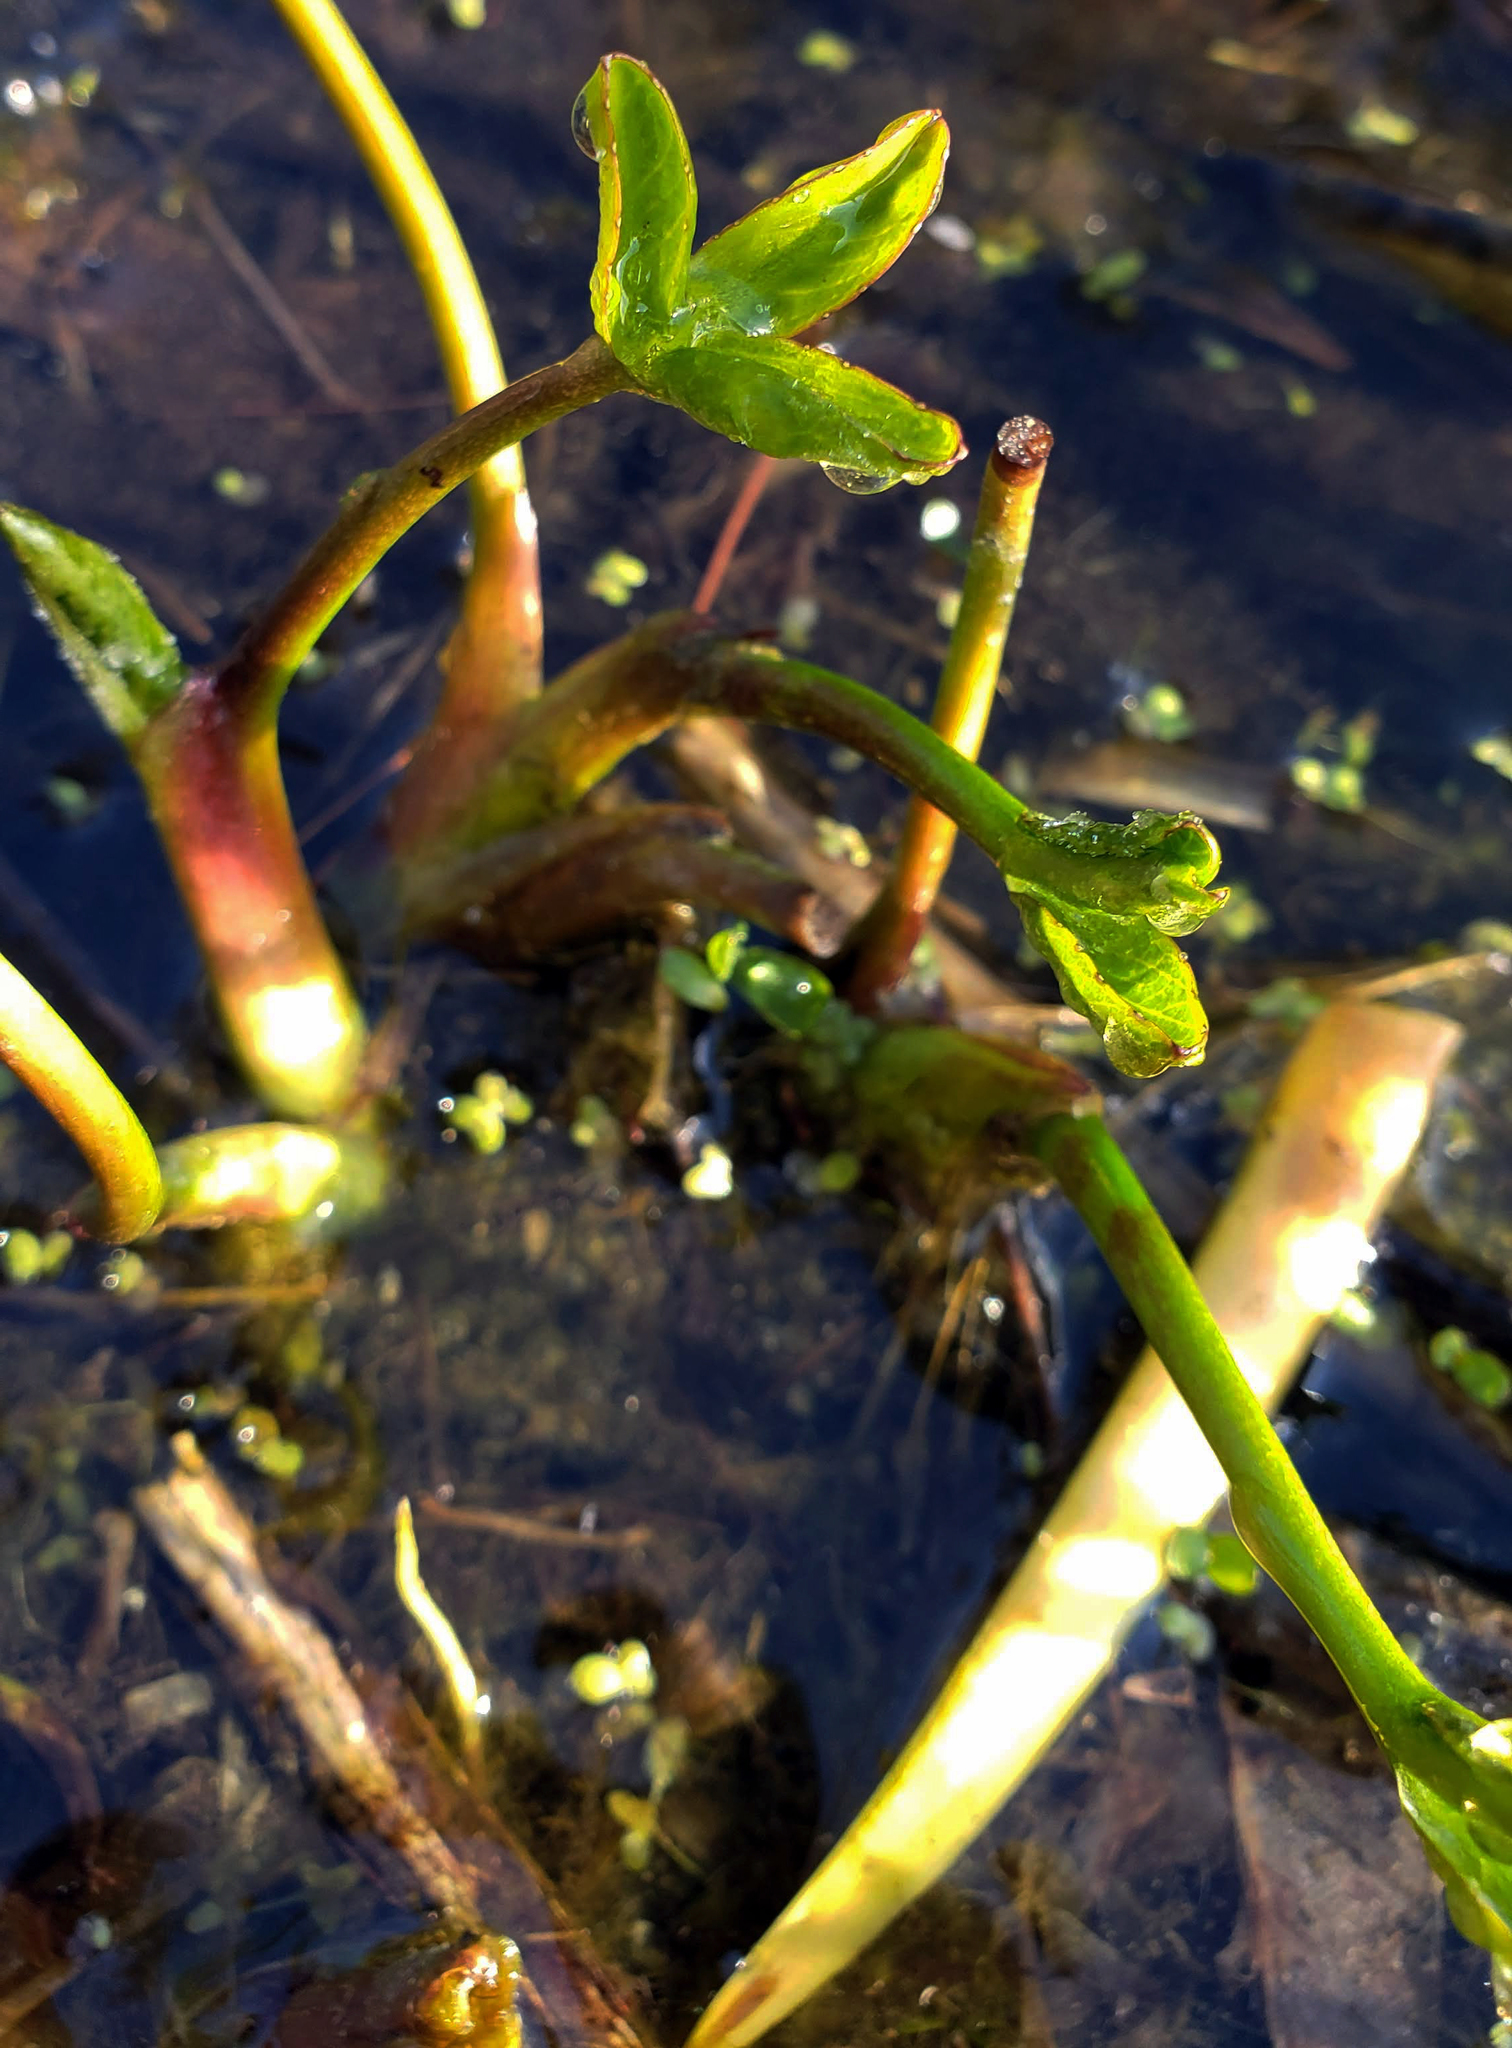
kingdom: Plantae
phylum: Tracheophyta
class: Magnoliopsida
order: Asterales
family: Menyanthaceae
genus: Menyanthes
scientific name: Menyanthes trifoliata
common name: Bogbean
